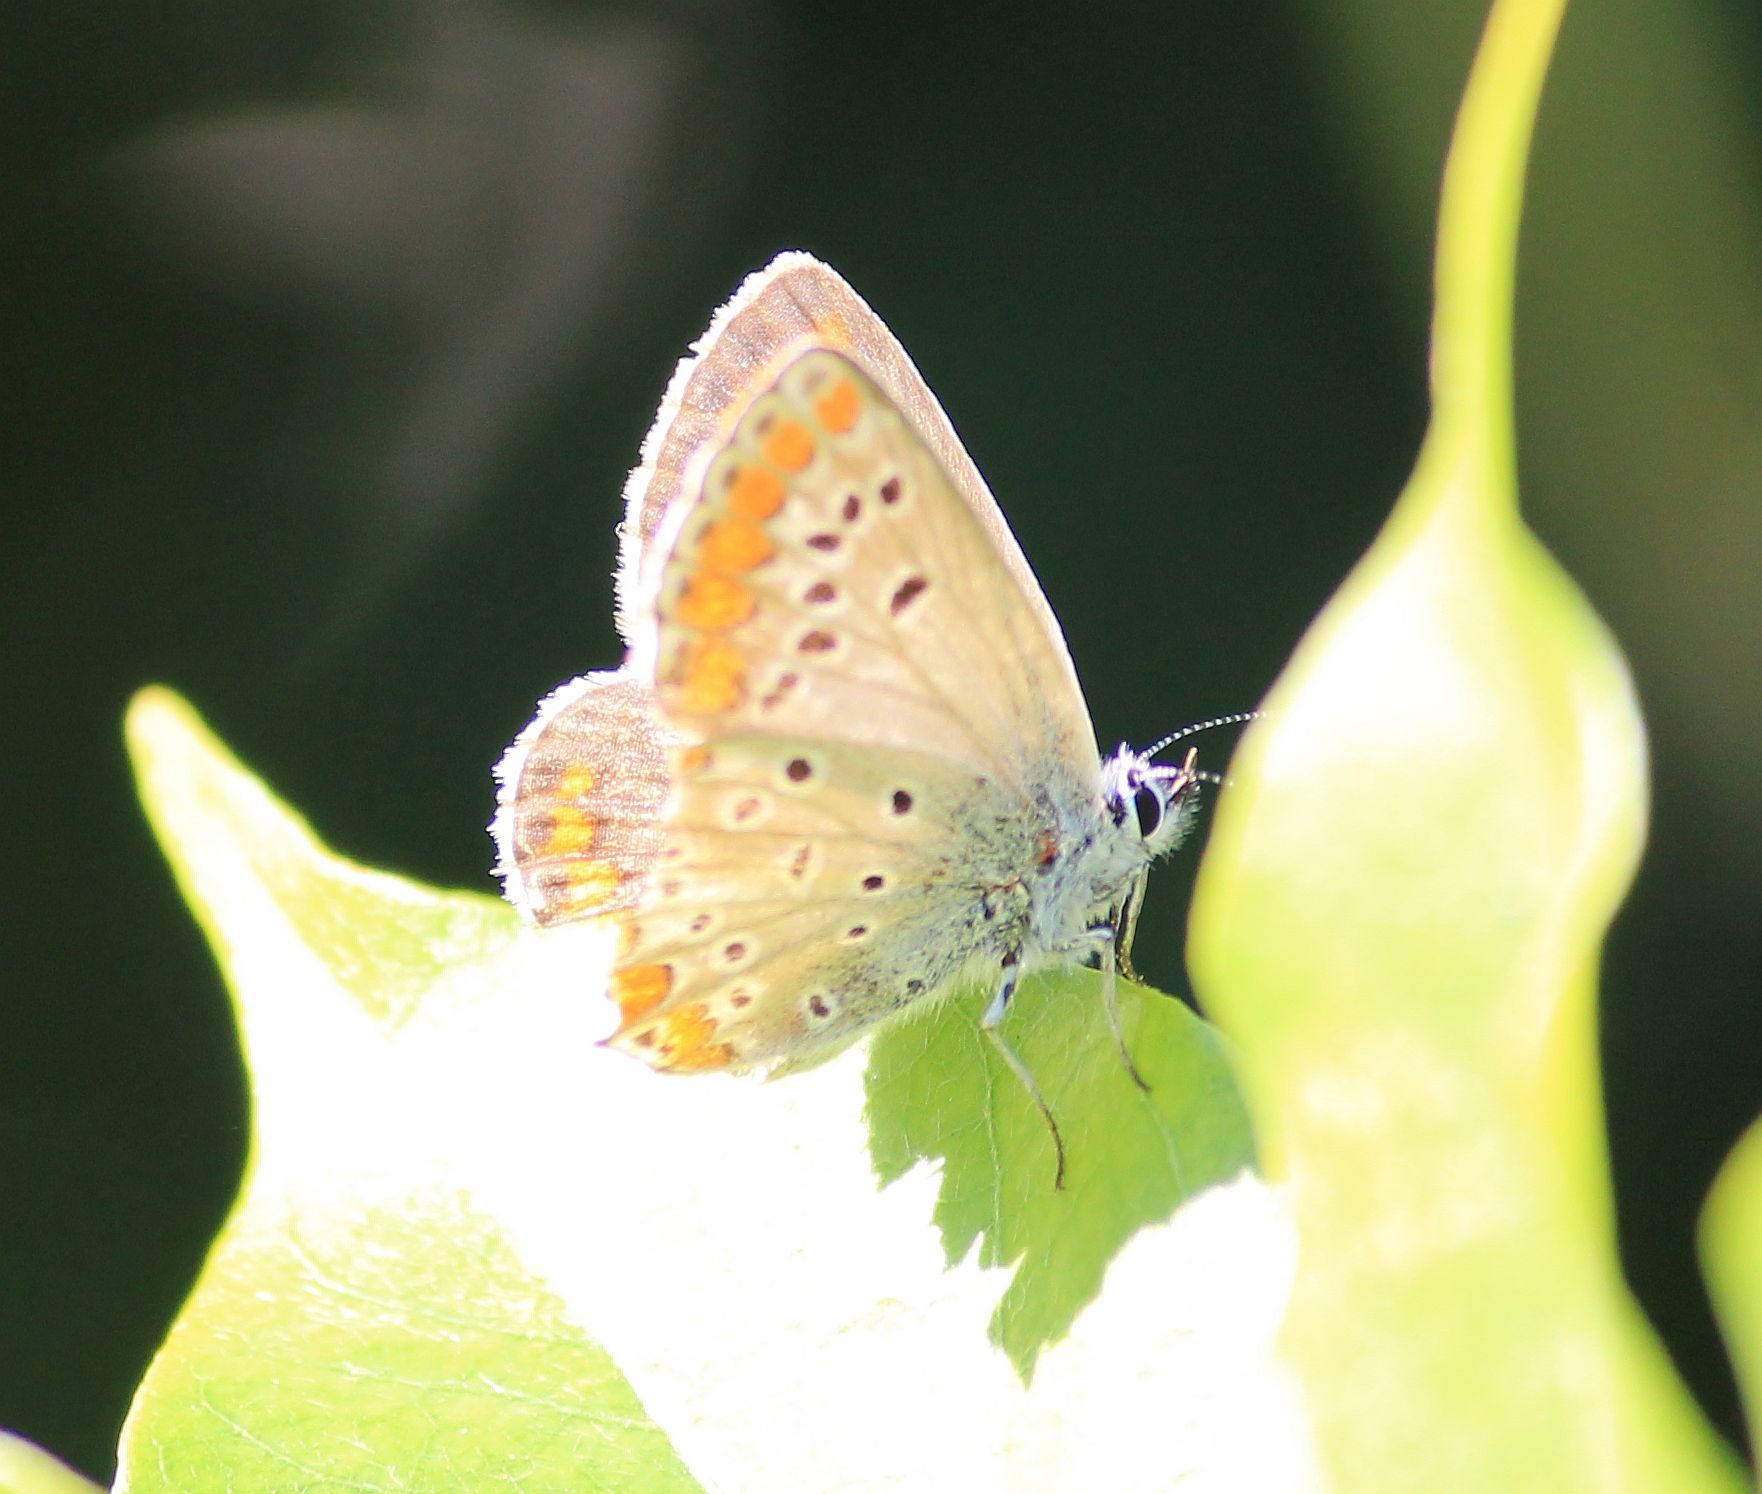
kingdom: Animalia
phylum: Arthropoda
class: Insecta
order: Lepidoptera
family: Lycaenidae
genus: Aricia
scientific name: Aricia agestis
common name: Brown argus
